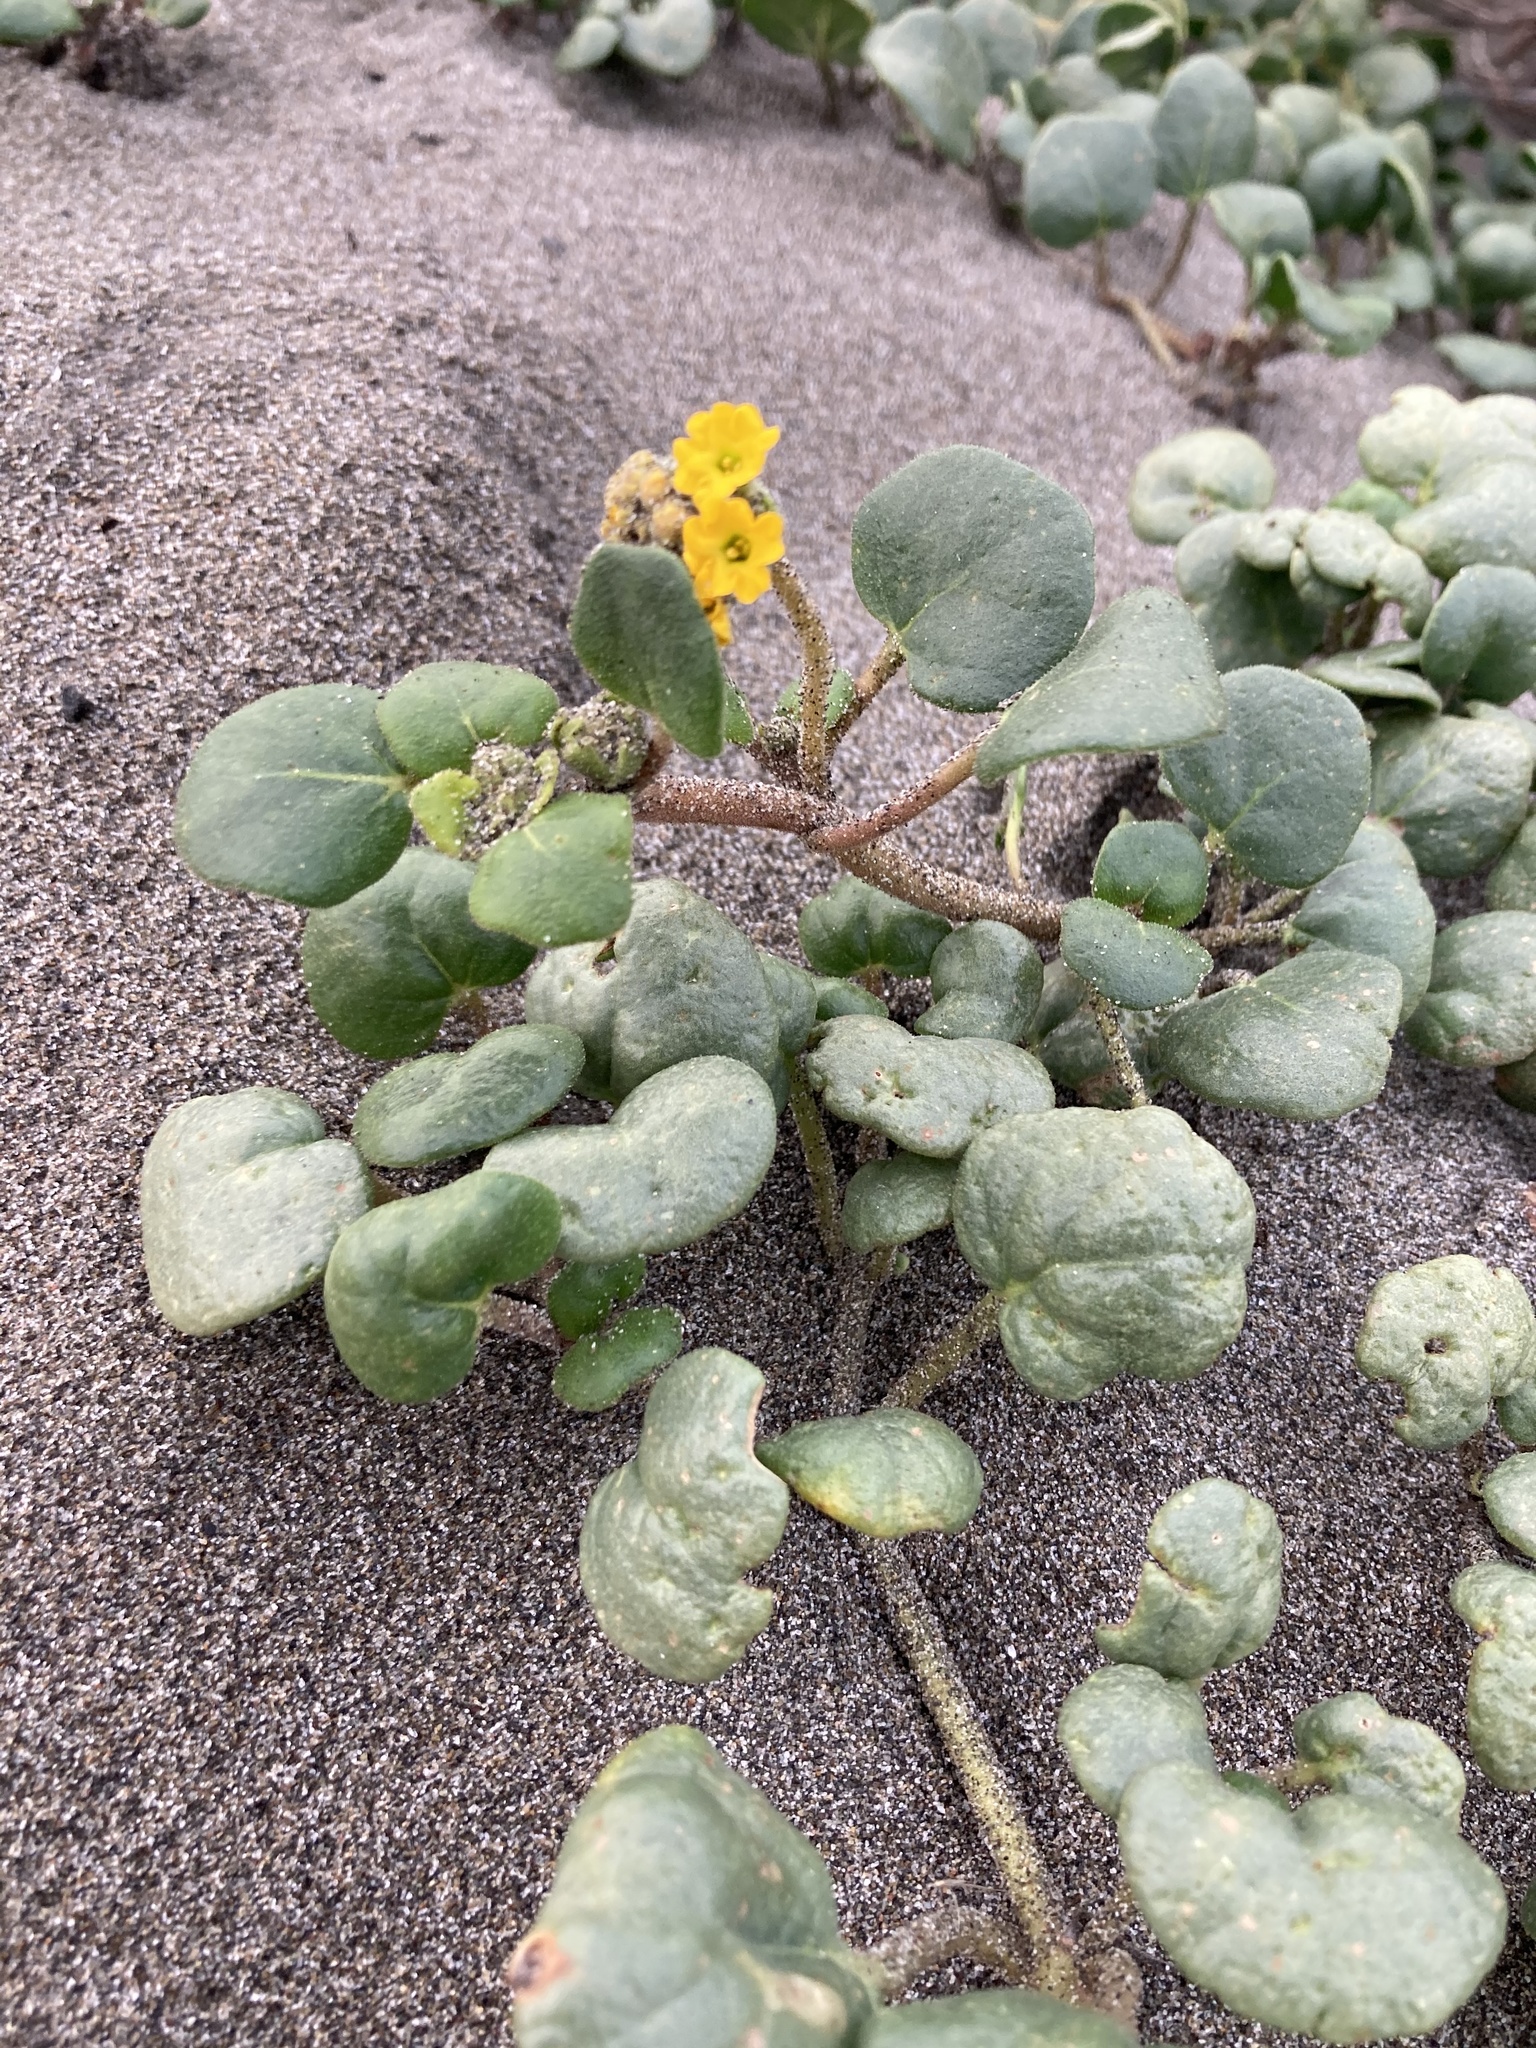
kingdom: Plantae
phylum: Tracheophyta
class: Magnoliopsida
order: Caryophyllales
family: Nyctaginaceae
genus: Abronia
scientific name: Abronia latifolia
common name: Yellow sand-verbena
